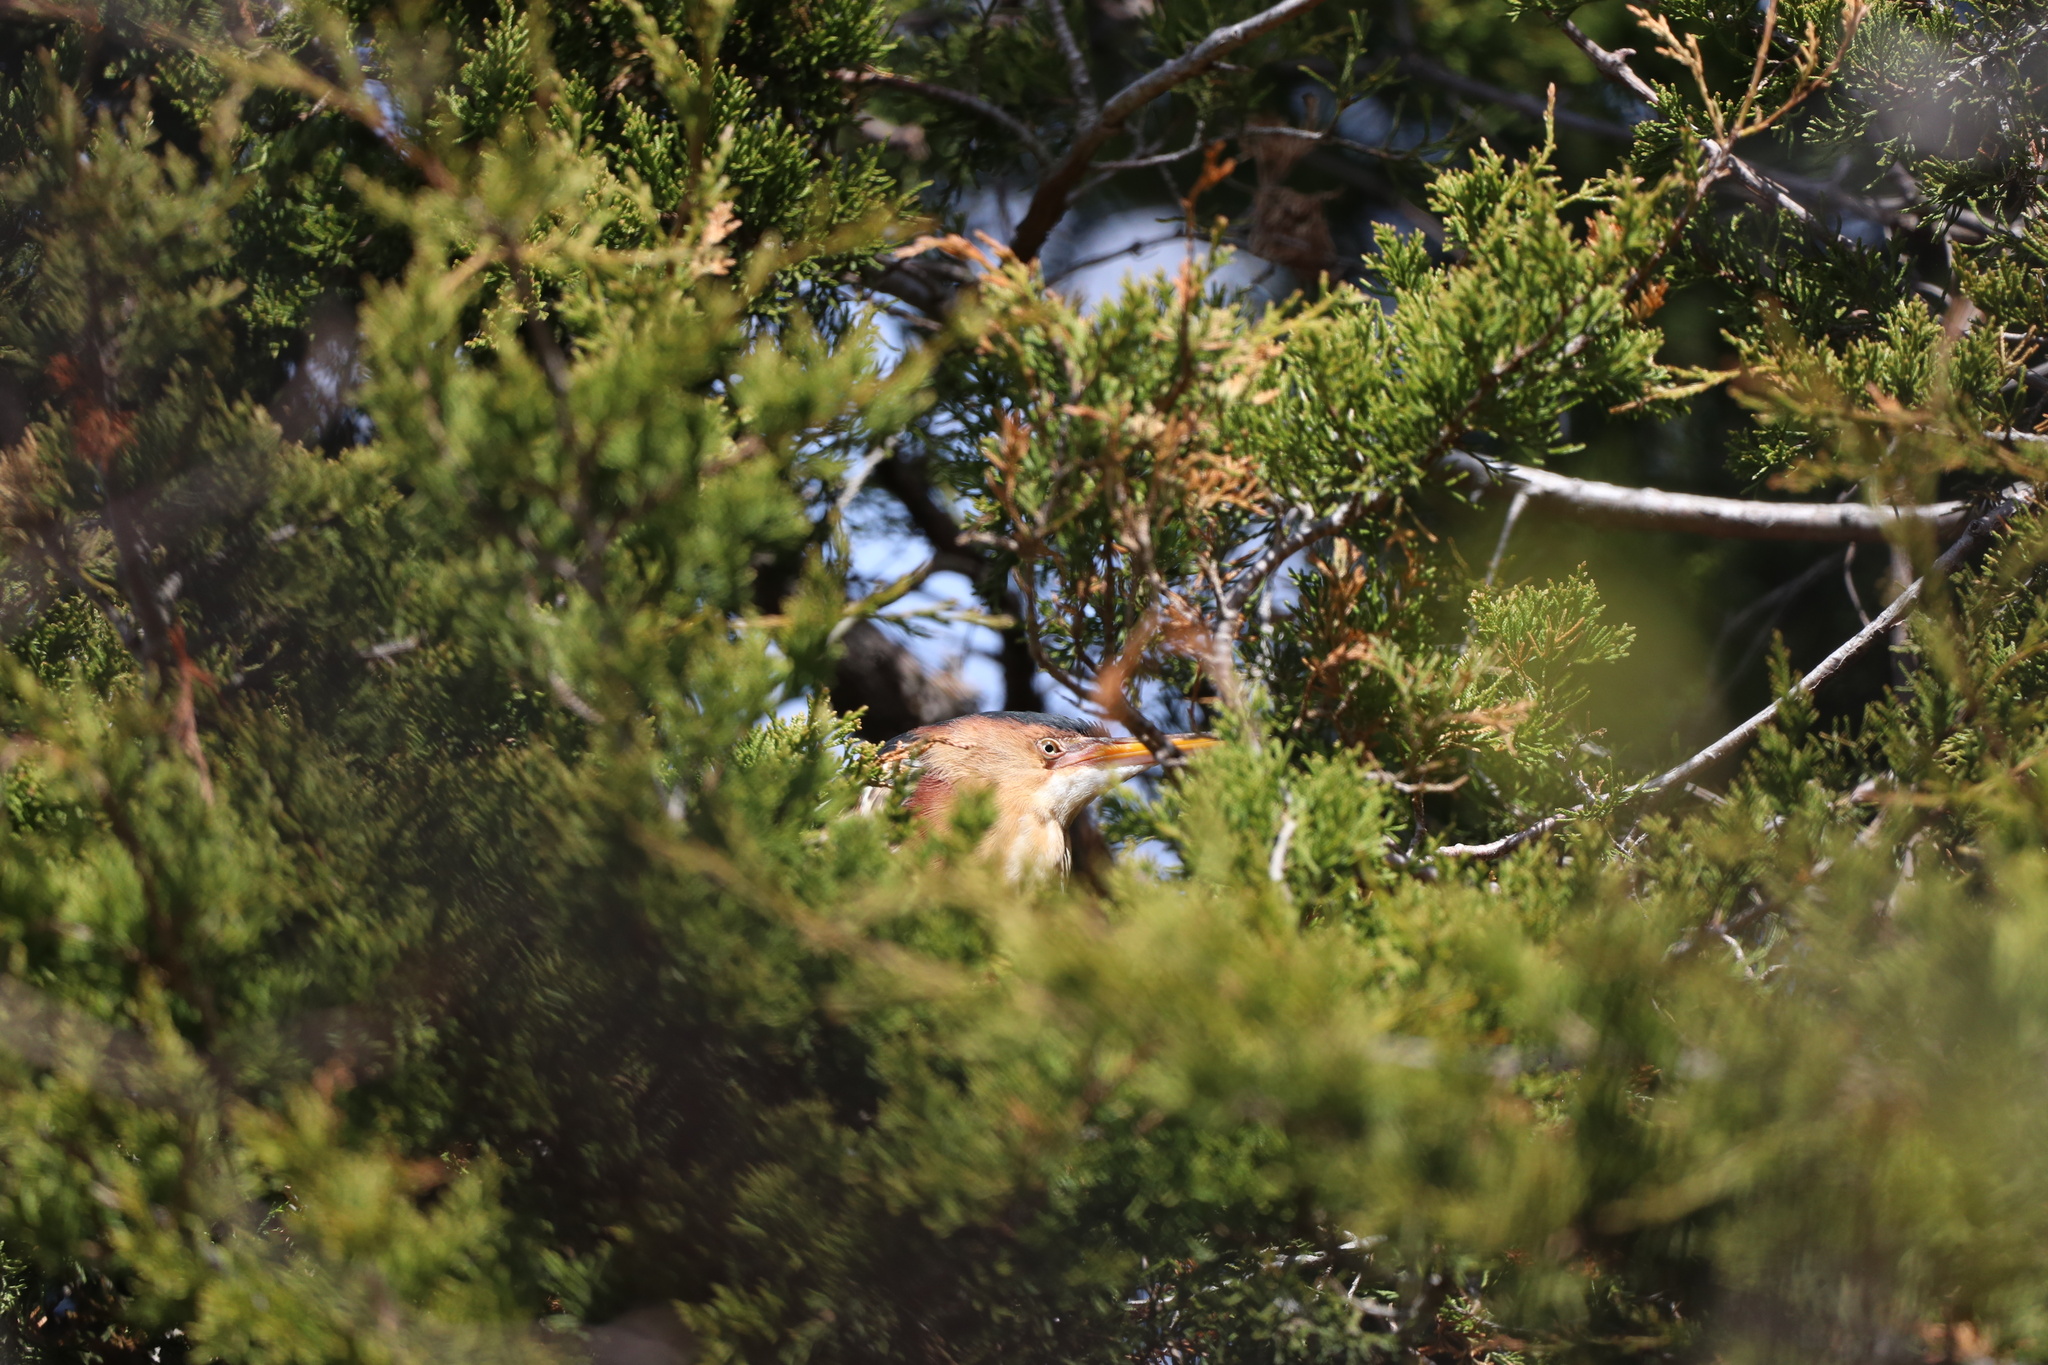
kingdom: Animalia
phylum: Chordata
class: Aves
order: Pelecaniformes
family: Ardeidae
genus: Ixobrychus
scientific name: Ixobrychus exilis
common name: Least bittern
